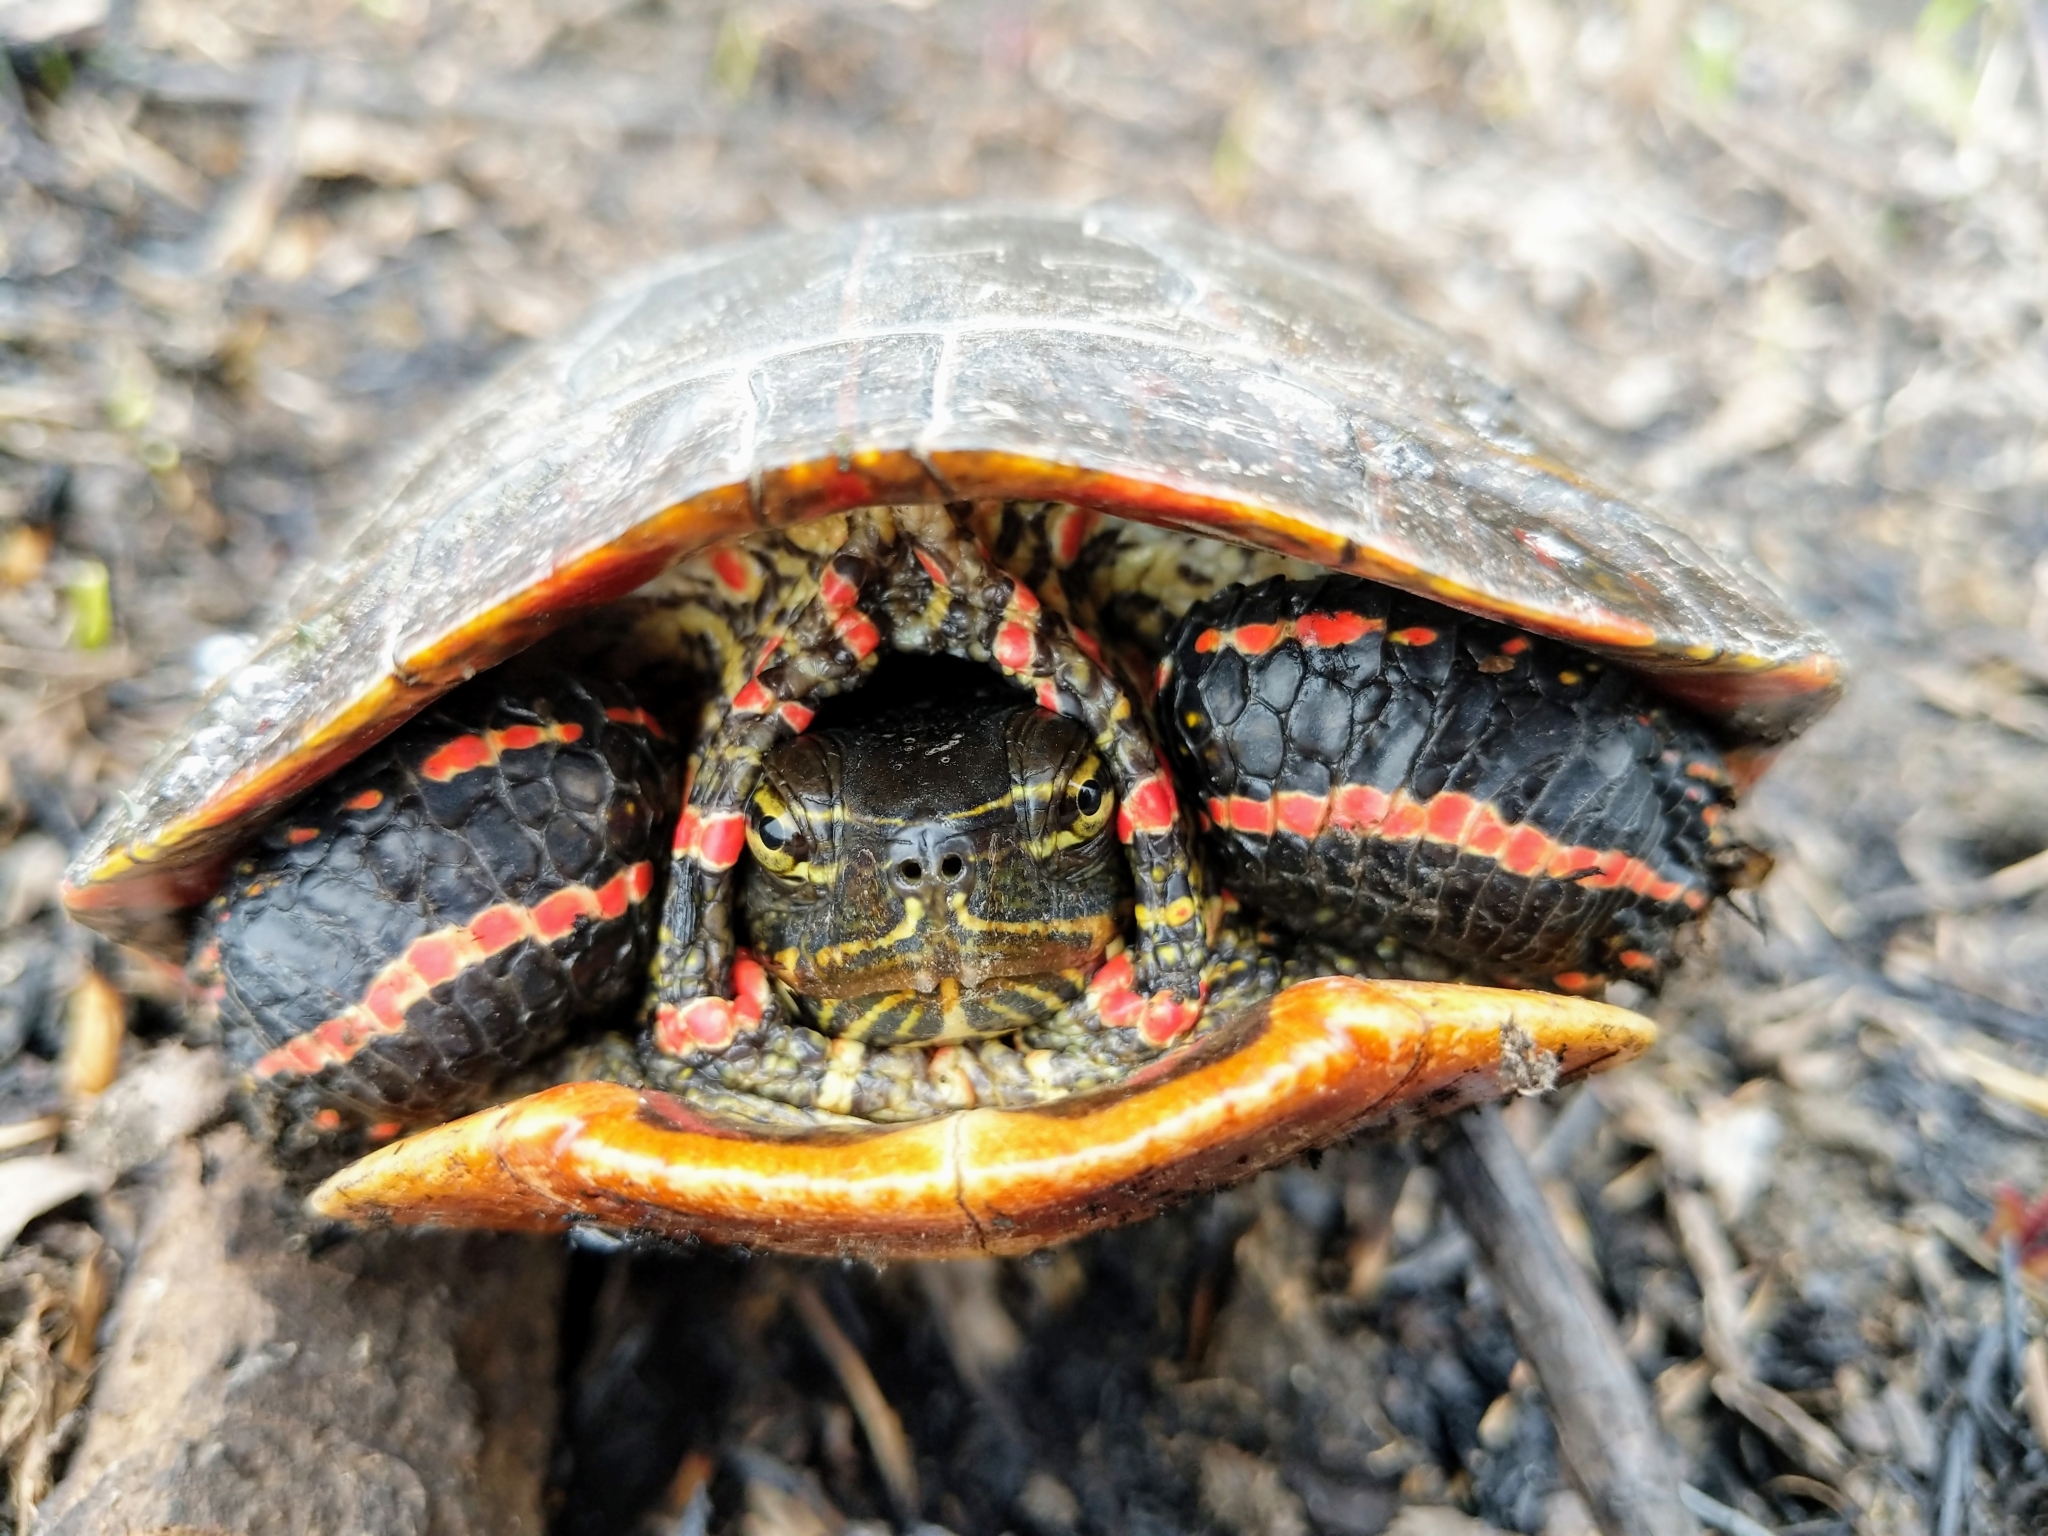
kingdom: Animalia
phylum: Chordata
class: Testudines
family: Emydidae
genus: Chrysemys
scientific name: Chrysemys picta
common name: Painted turtle
